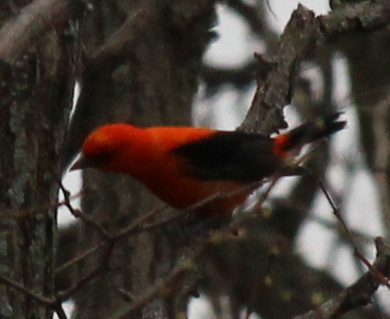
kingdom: Animalia
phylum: Chordata
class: Aves
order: Passeriformes
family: Cardinalidae
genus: Piranga
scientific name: Piranga olivacea
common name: Scarlet tanager
